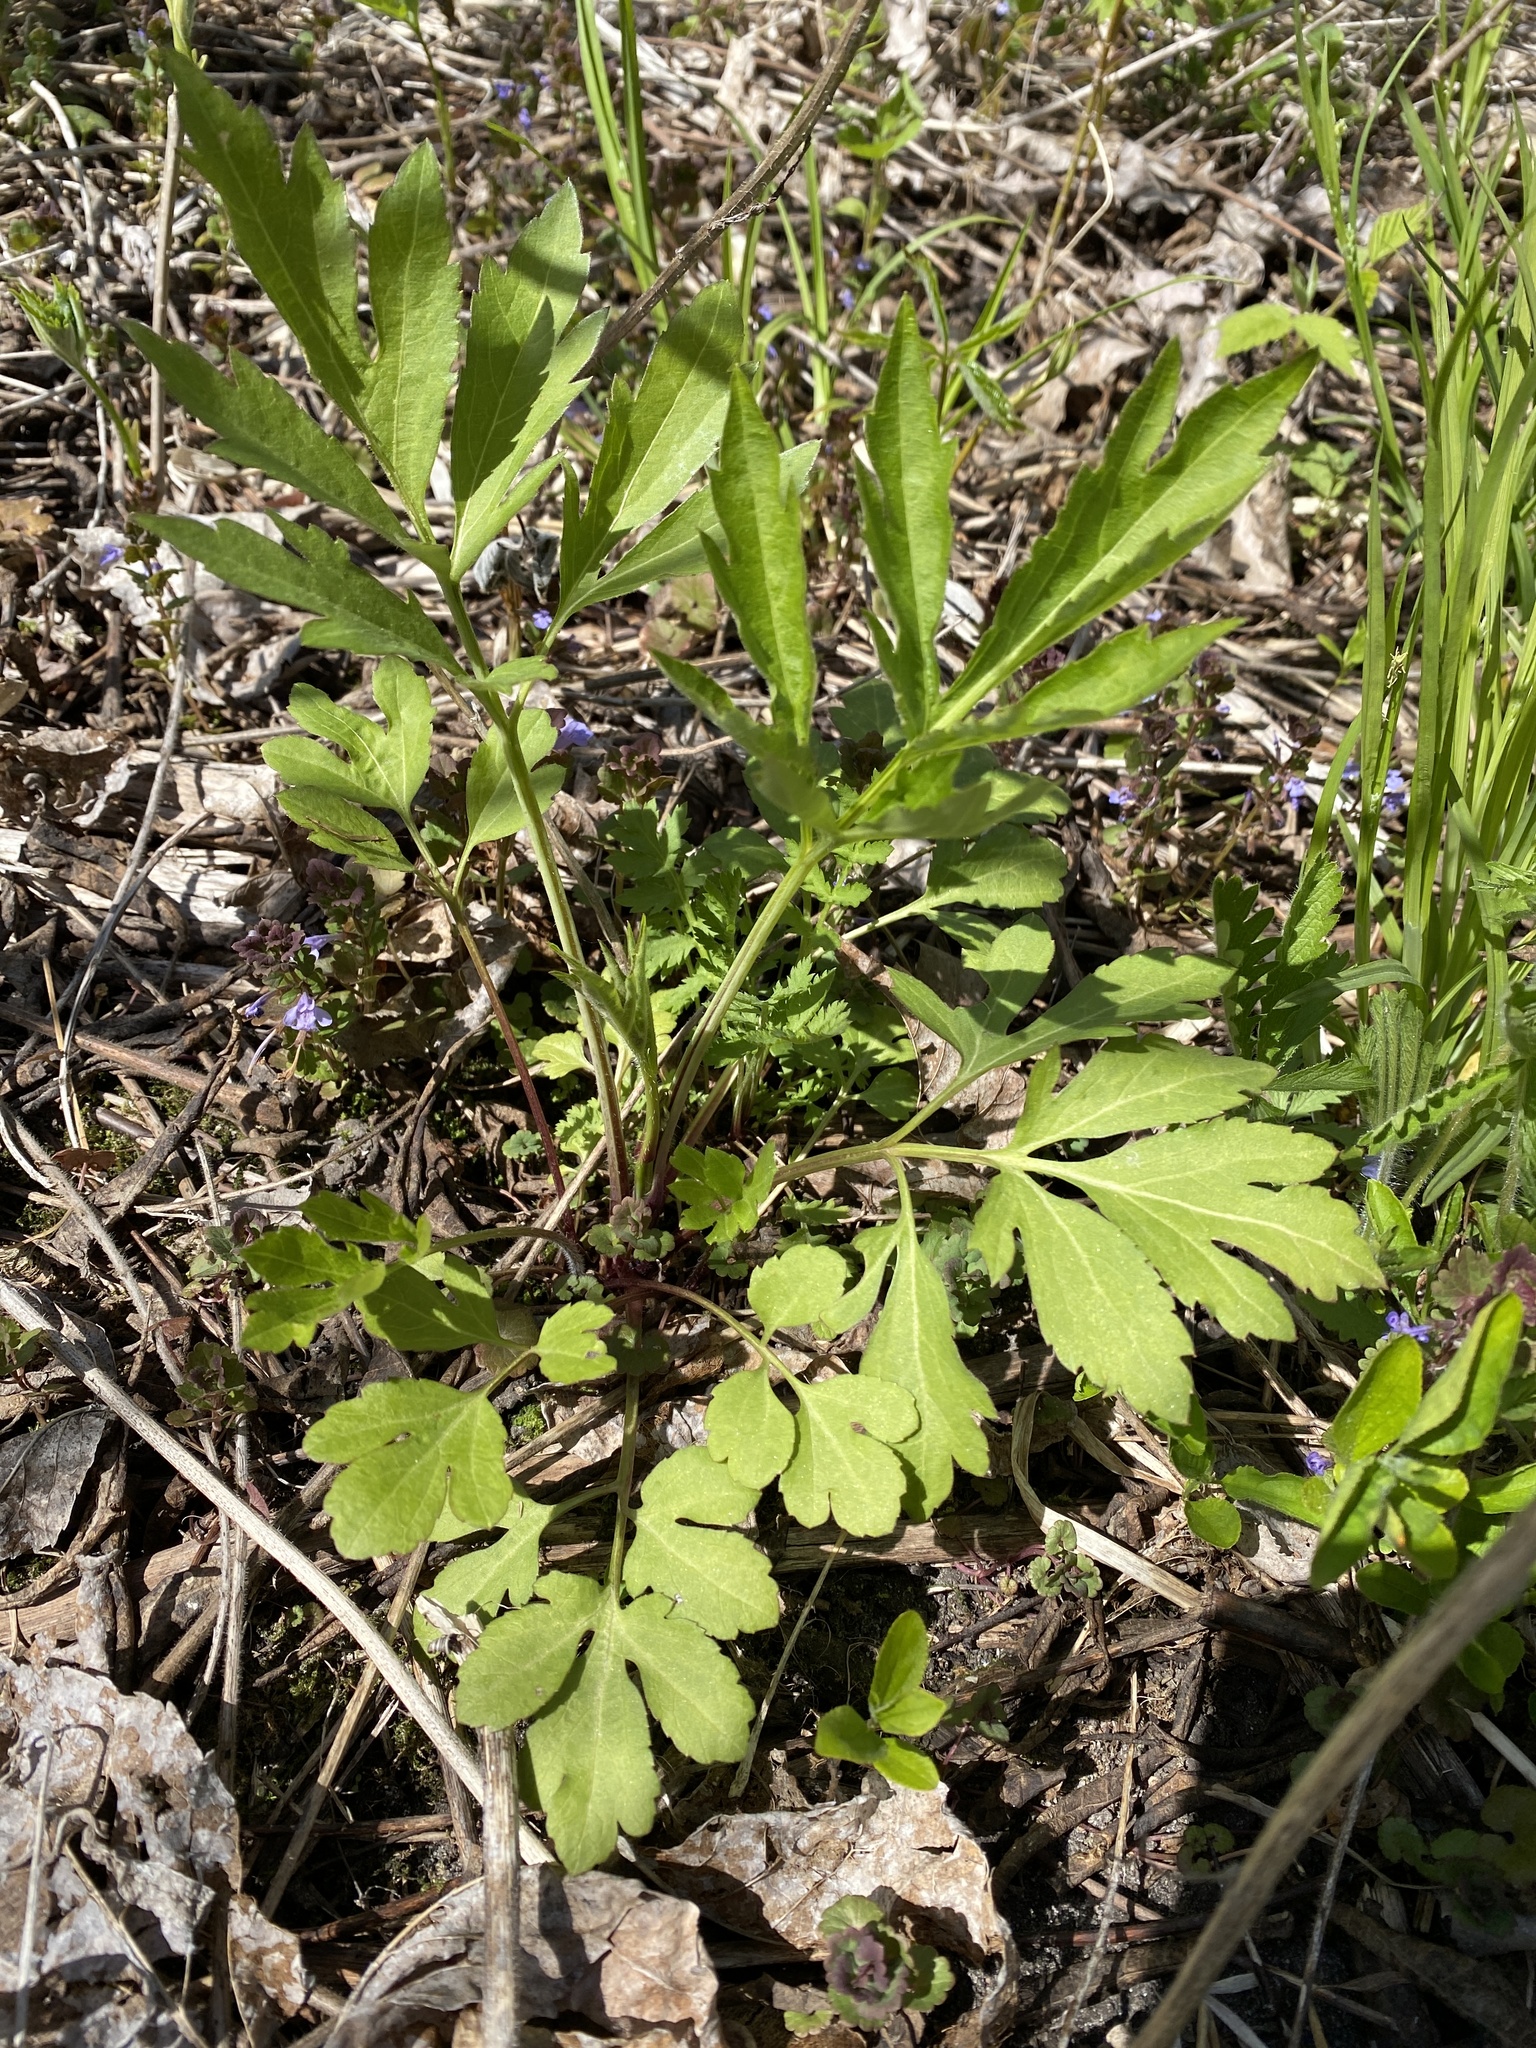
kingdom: Plantae
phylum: Tracheophyta
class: Magnoliopsida
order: Asterales
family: Asteraceae
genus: Rudbeckia
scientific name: Rudbeckia laciniata
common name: Coneflower
